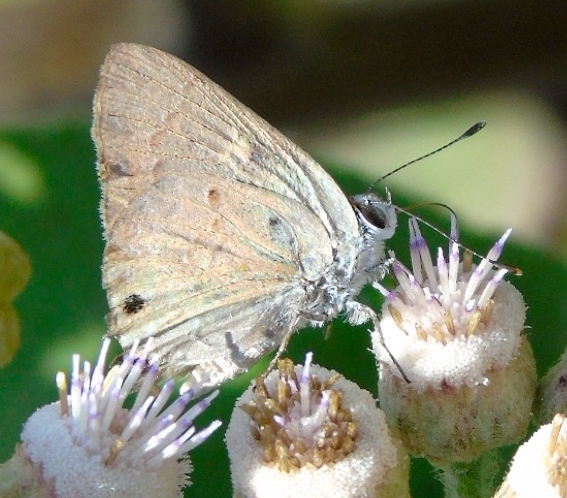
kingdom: Animalia
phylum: Arthropoda
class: Insecta
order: Lepidoptera
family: Lycaenidae
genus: Callicista
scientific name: Callicista columella
